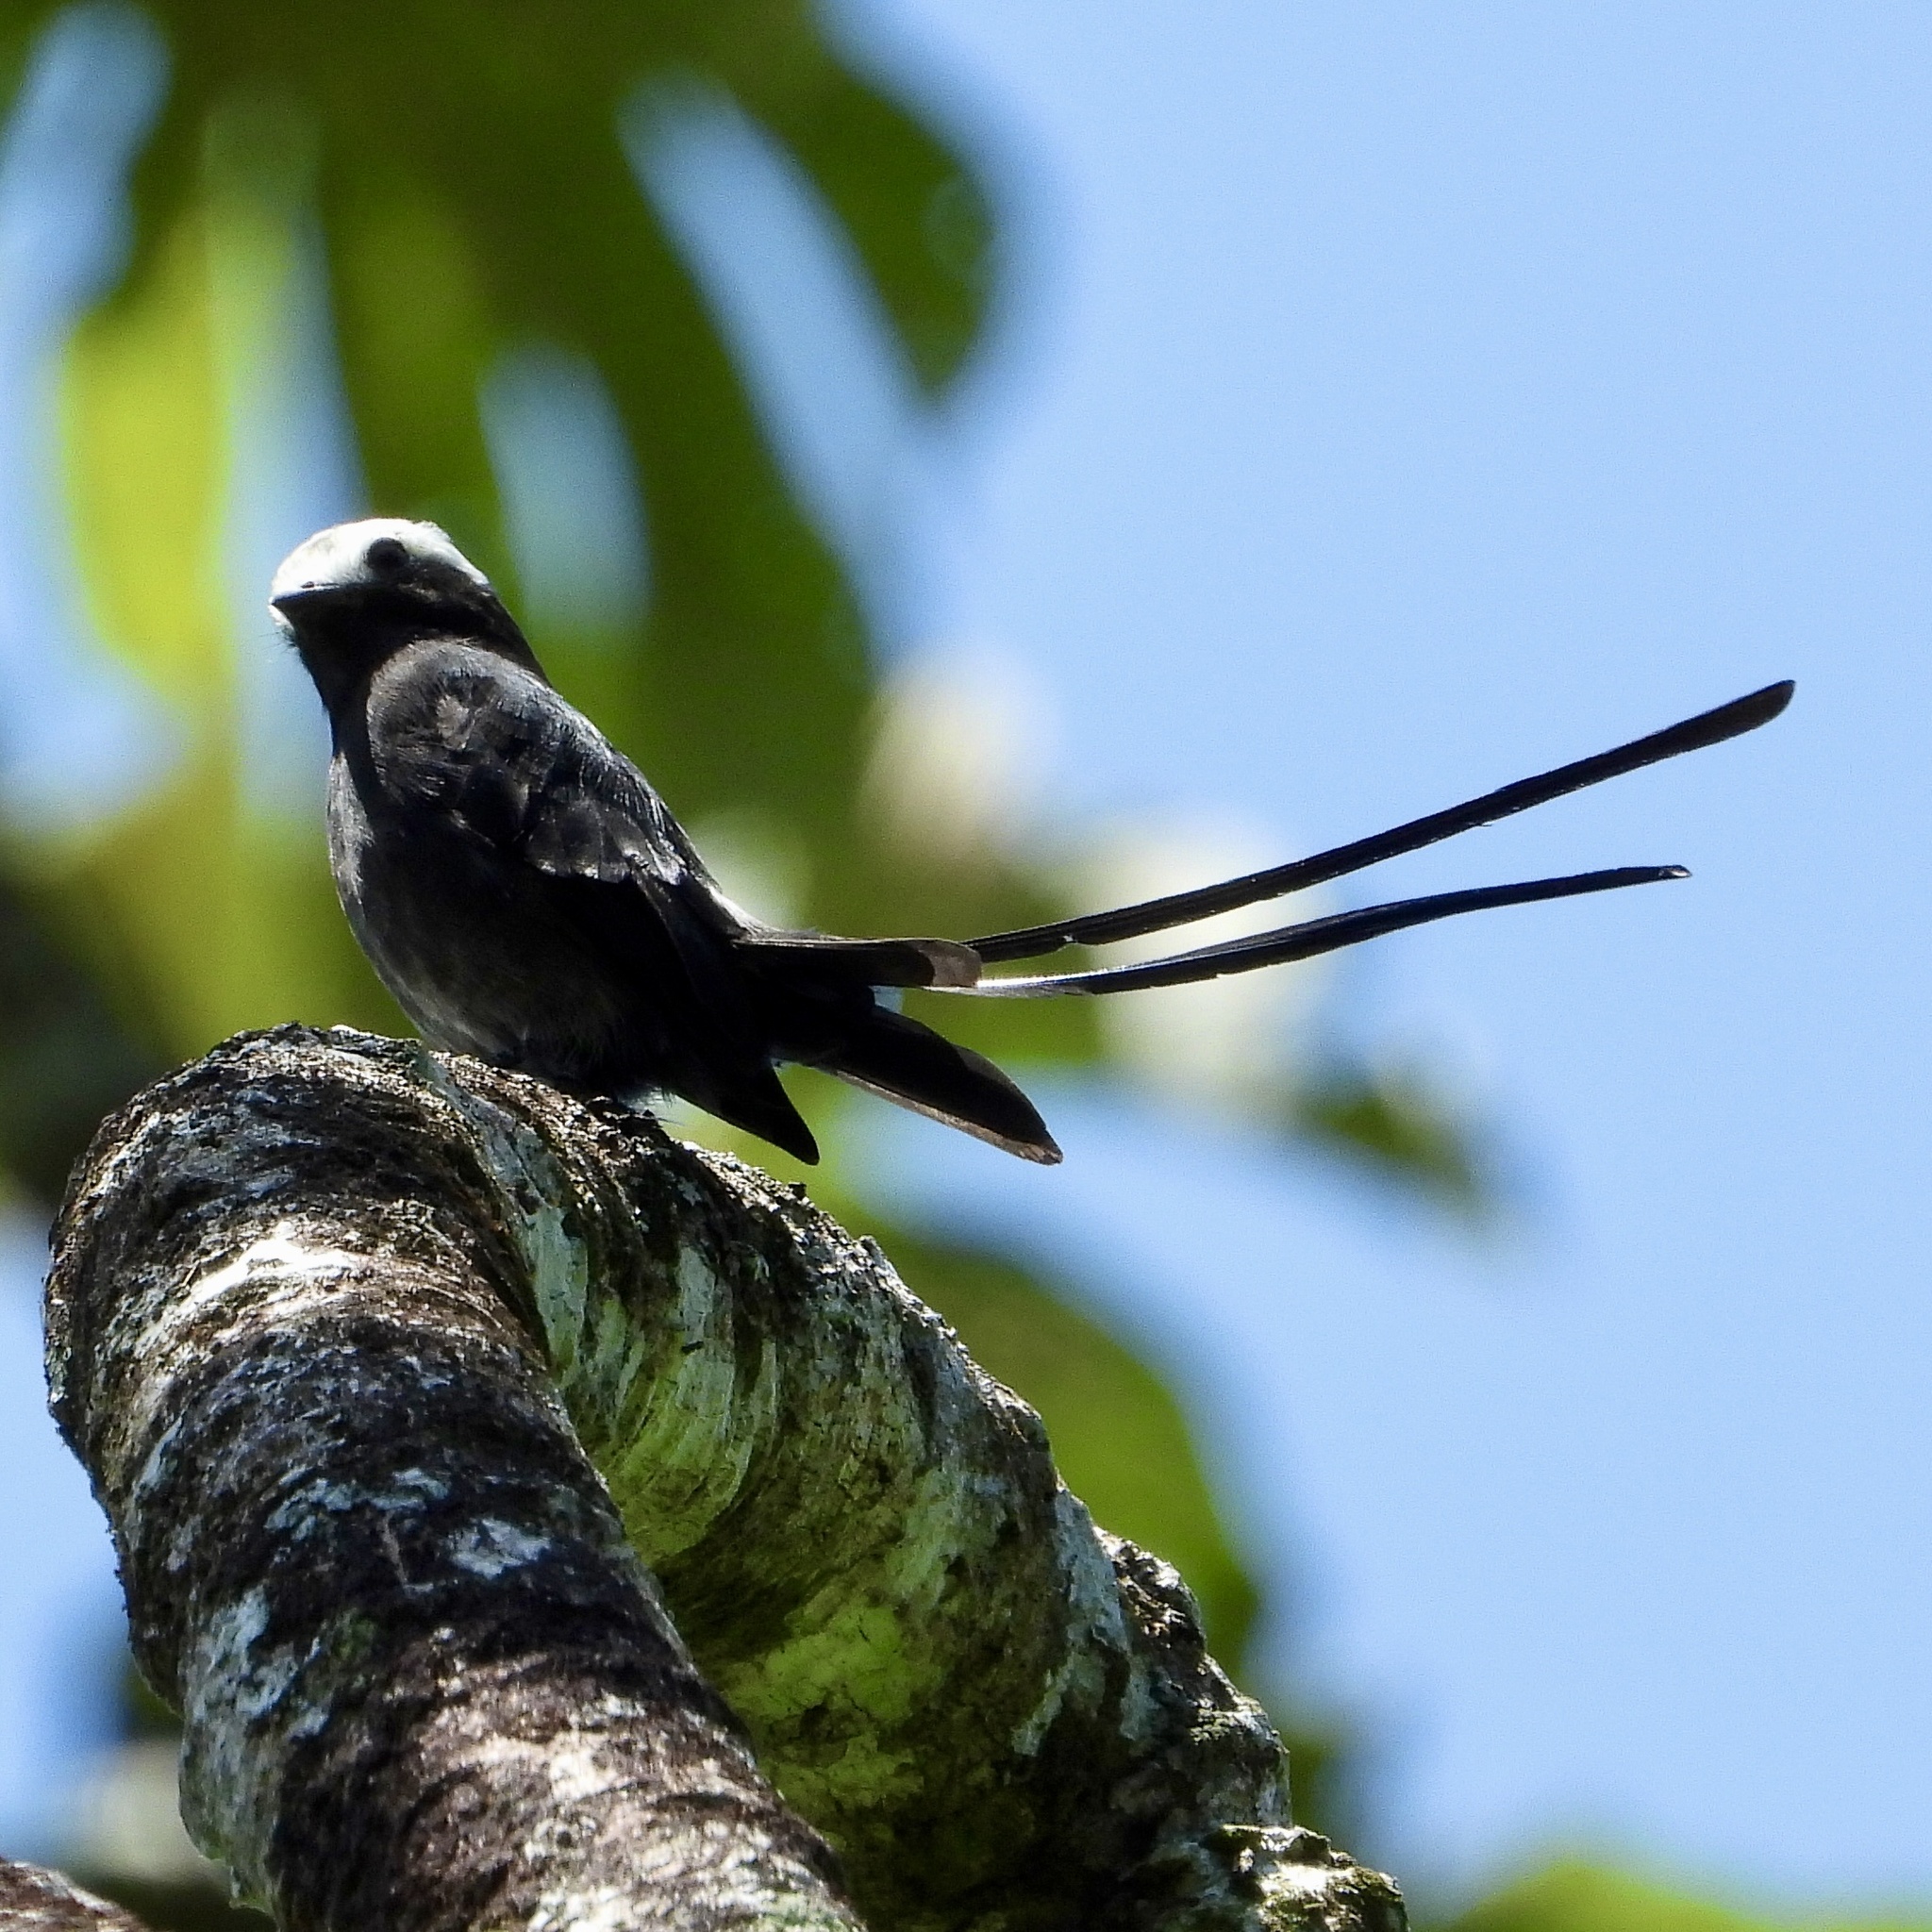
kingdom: Animalia
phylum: Chordata
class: Aves
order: Passeriformes
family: Tyrannidae
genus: Colonia
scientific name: Colonia colonus
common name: Long-tailed tyrant
